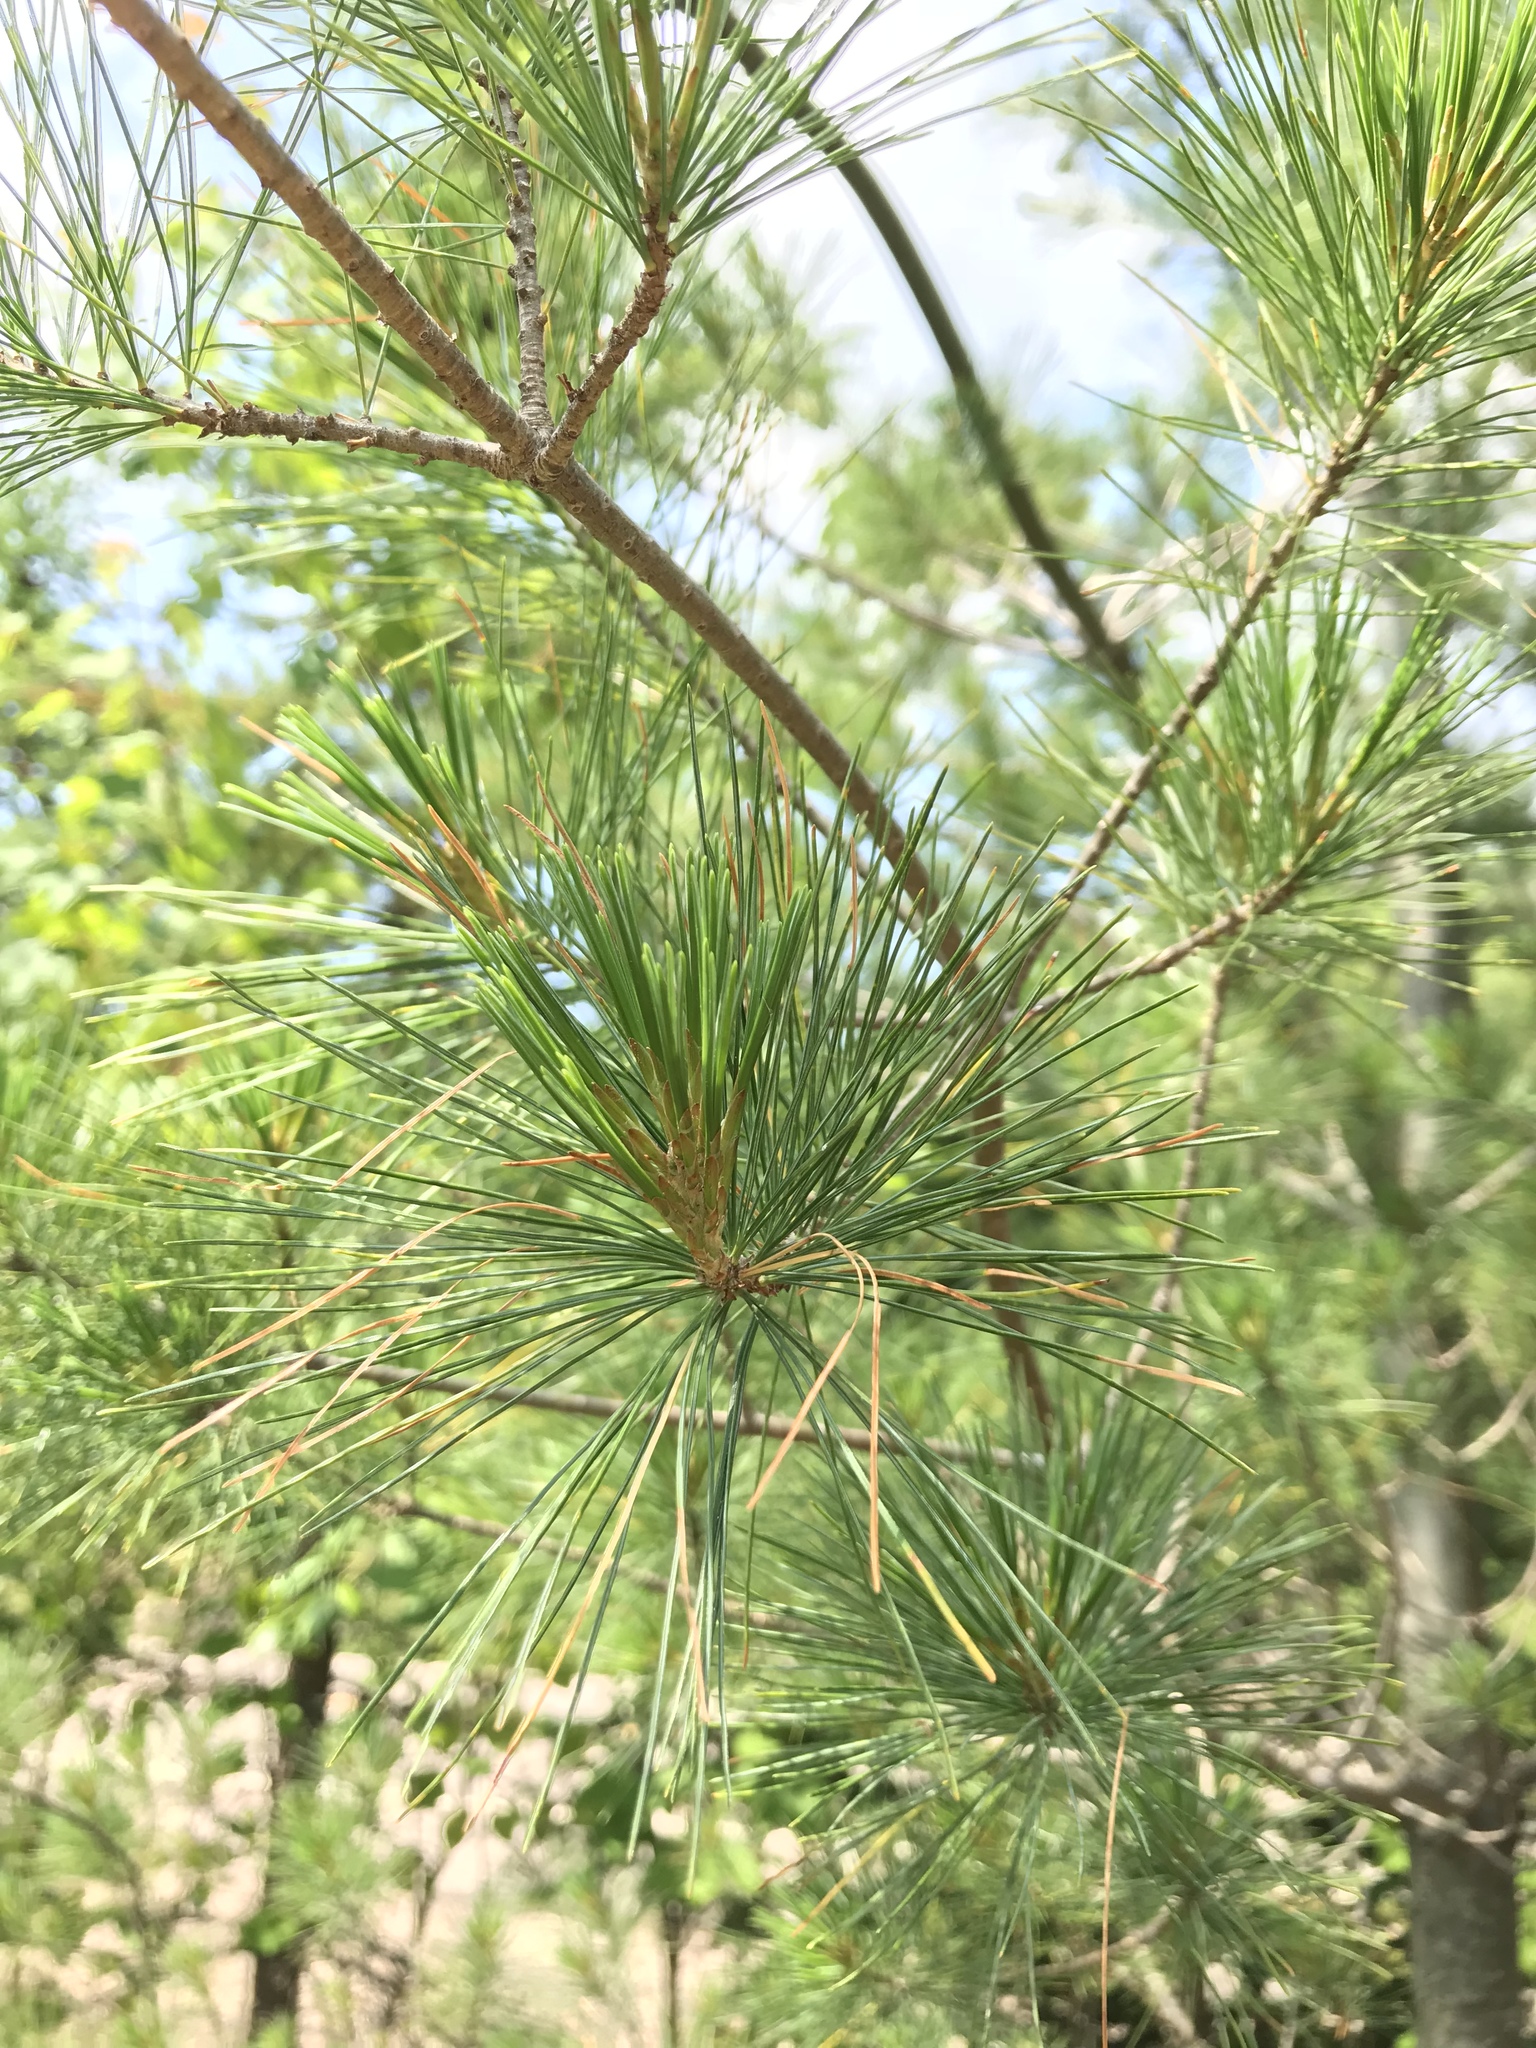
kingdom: Plantae
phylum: Tracheophyta
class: Pinopsida
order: Pinales
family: Pinaceae
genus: Pinus
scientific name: Pinus strobus
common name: Weymouth pine
